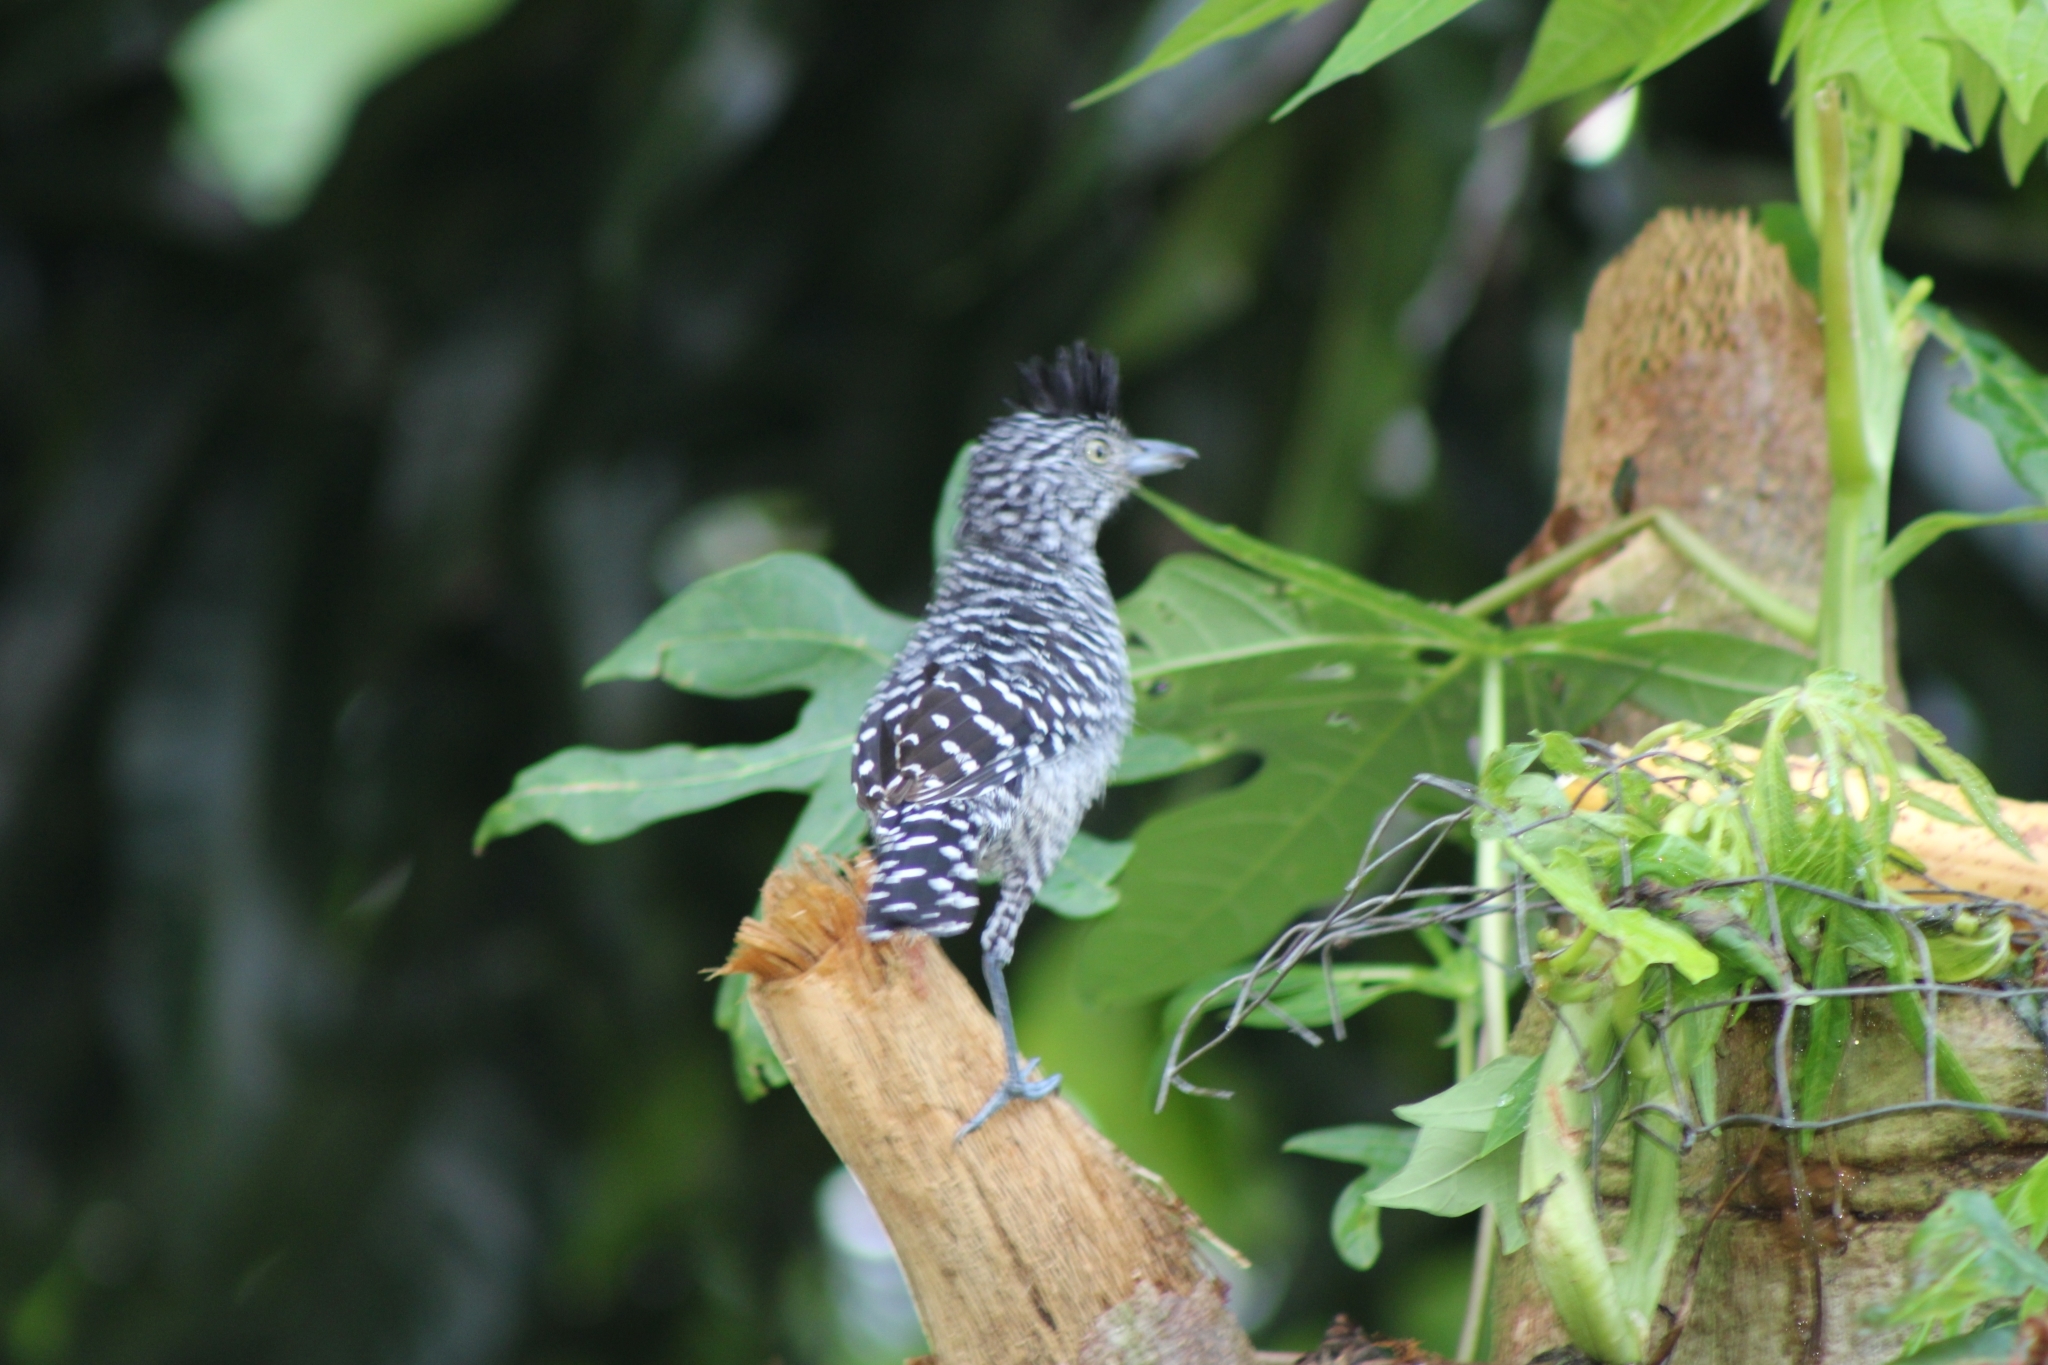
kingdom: Animalia
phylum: Chordata
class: Aves
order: Passeriformes
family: Thamnophilidae
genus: Thamnophilus
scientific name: Thamnophilus doliatus
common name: Barred antshrike
